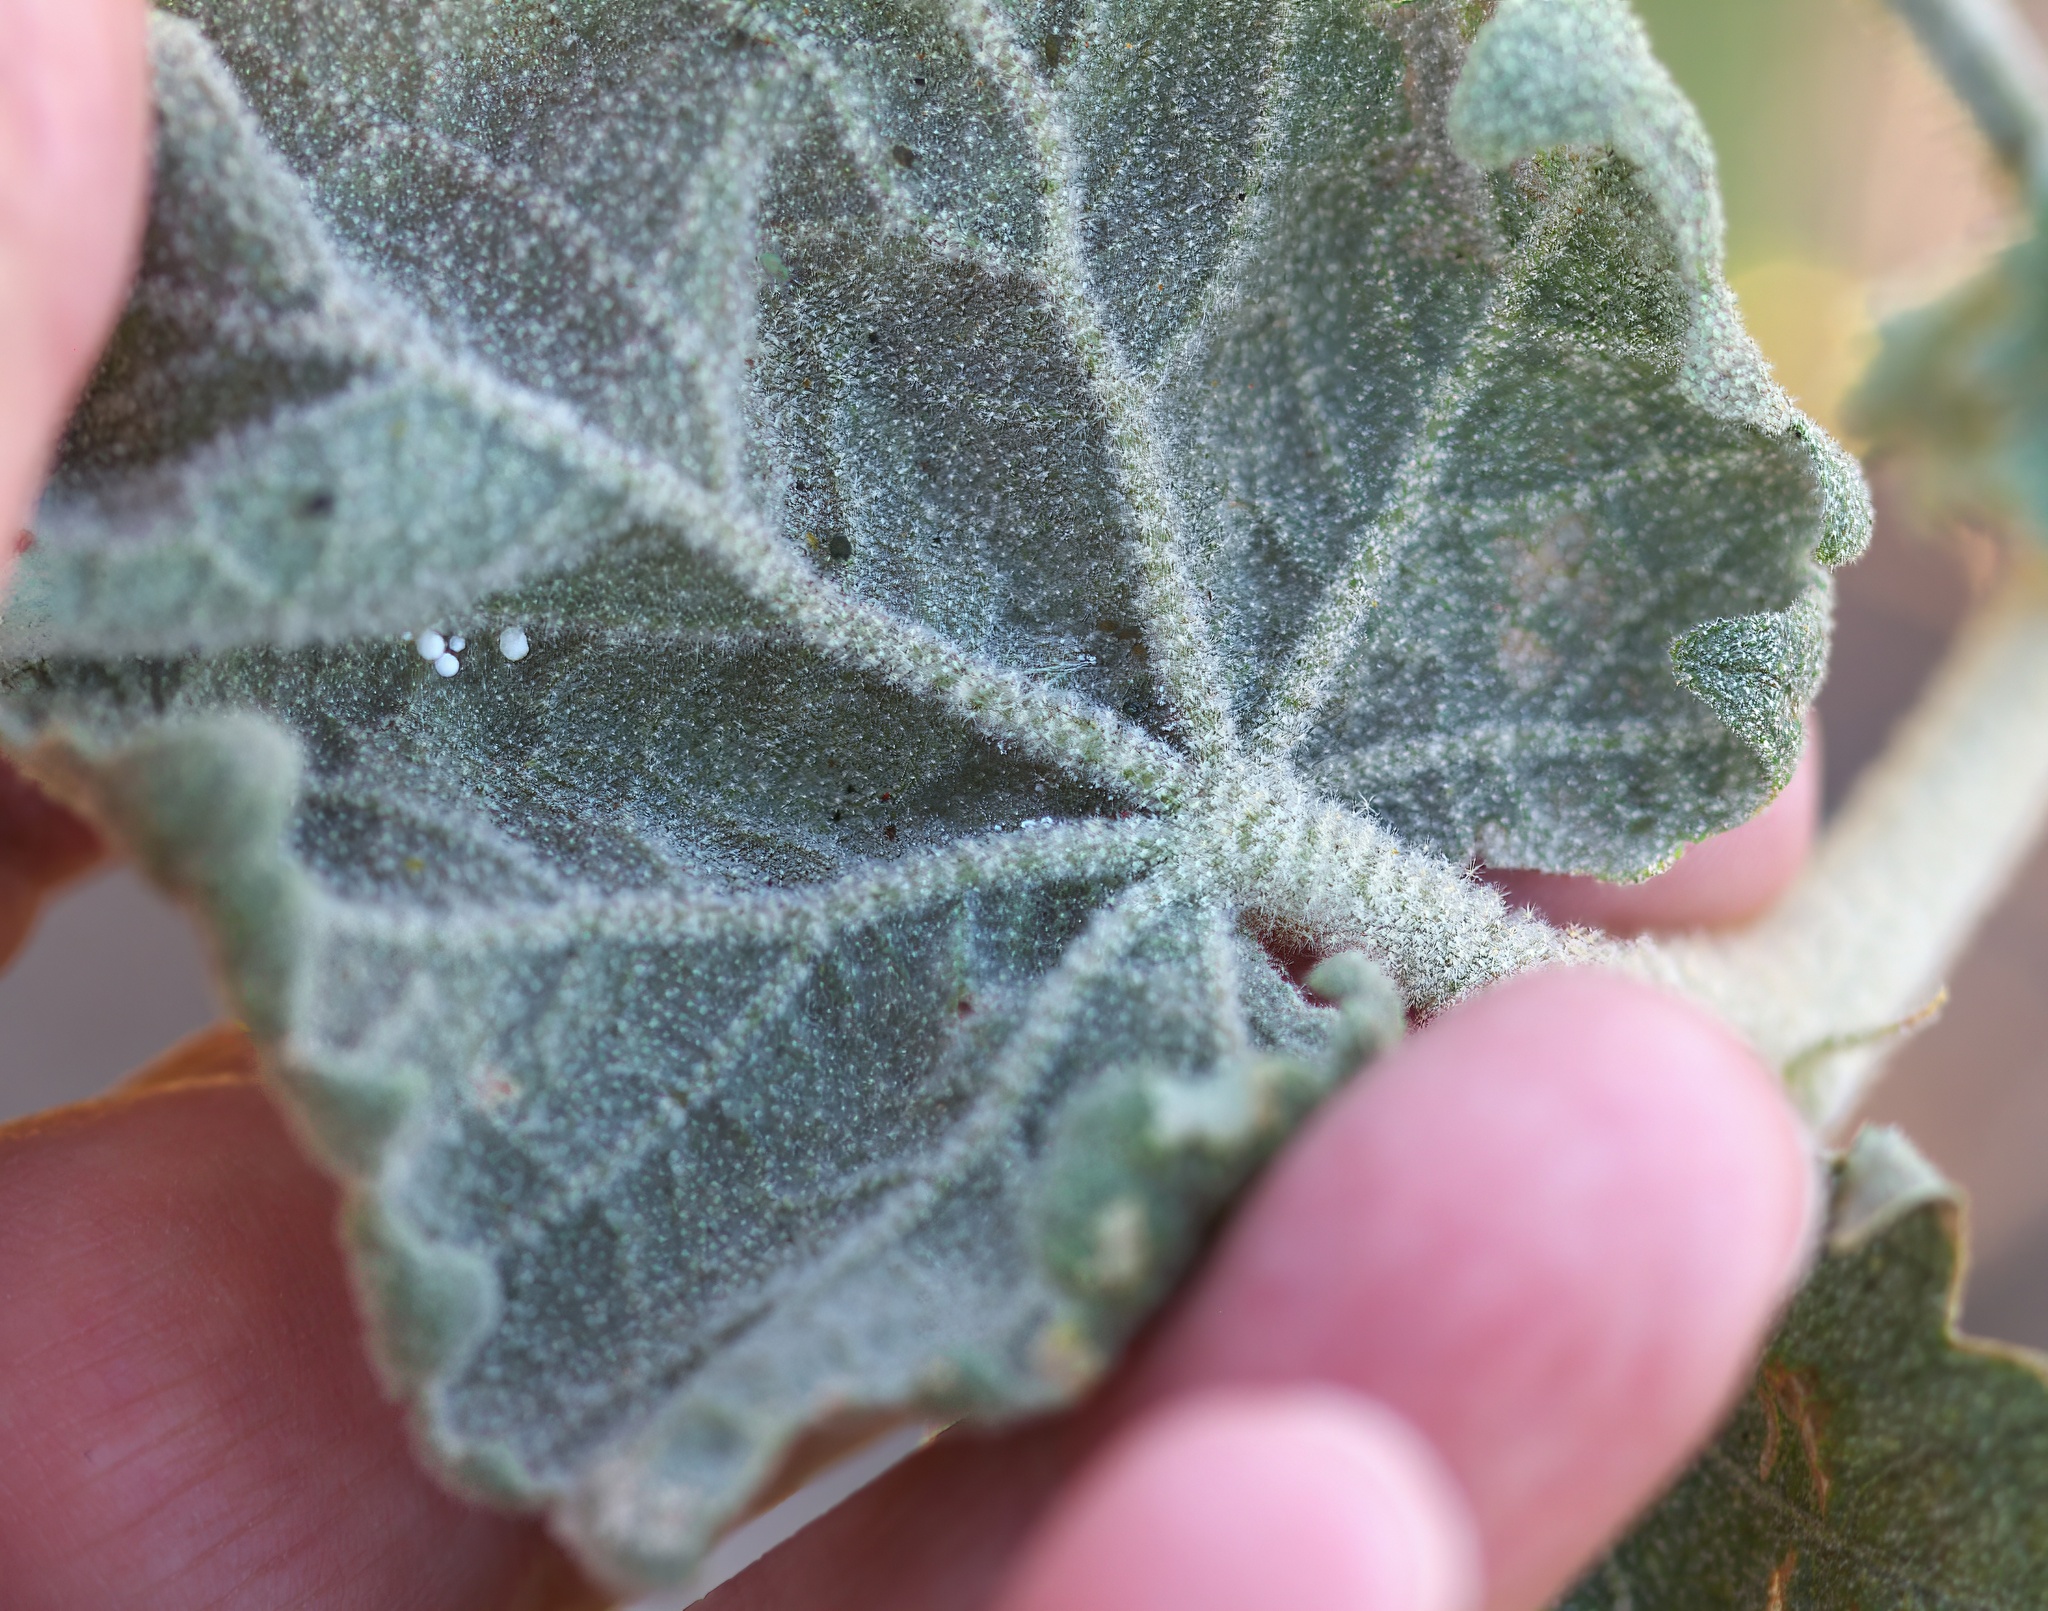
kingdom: Plantae
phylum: Tracheophyta
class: Magnoliopsida
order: Malvales
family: Malvaceae
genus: Malacothamnus
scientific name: Malacothamnus davidsonii
